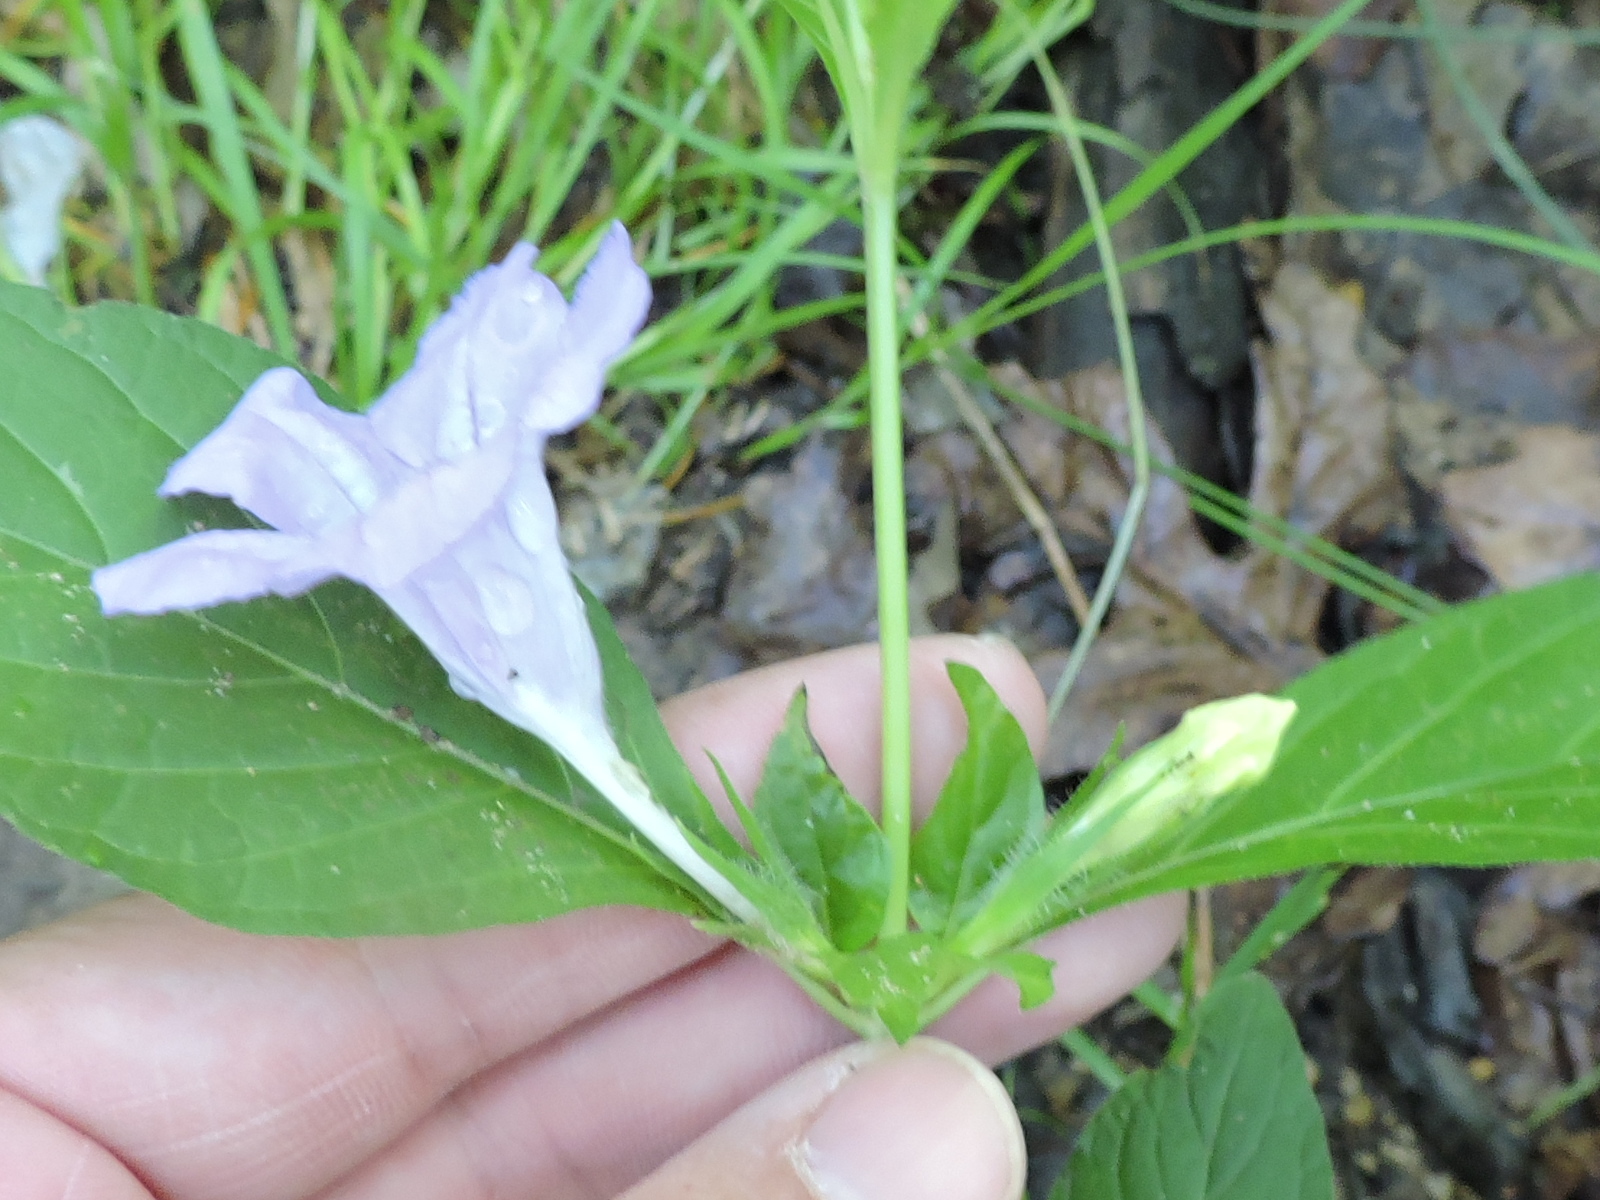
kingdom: Plantae
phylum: Tracheophyta
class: Magnoliopsida
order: Lamiales
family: Acanthaceae
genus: Ruellia
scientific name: Ruellia strepens
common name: Limestone wild petunia
